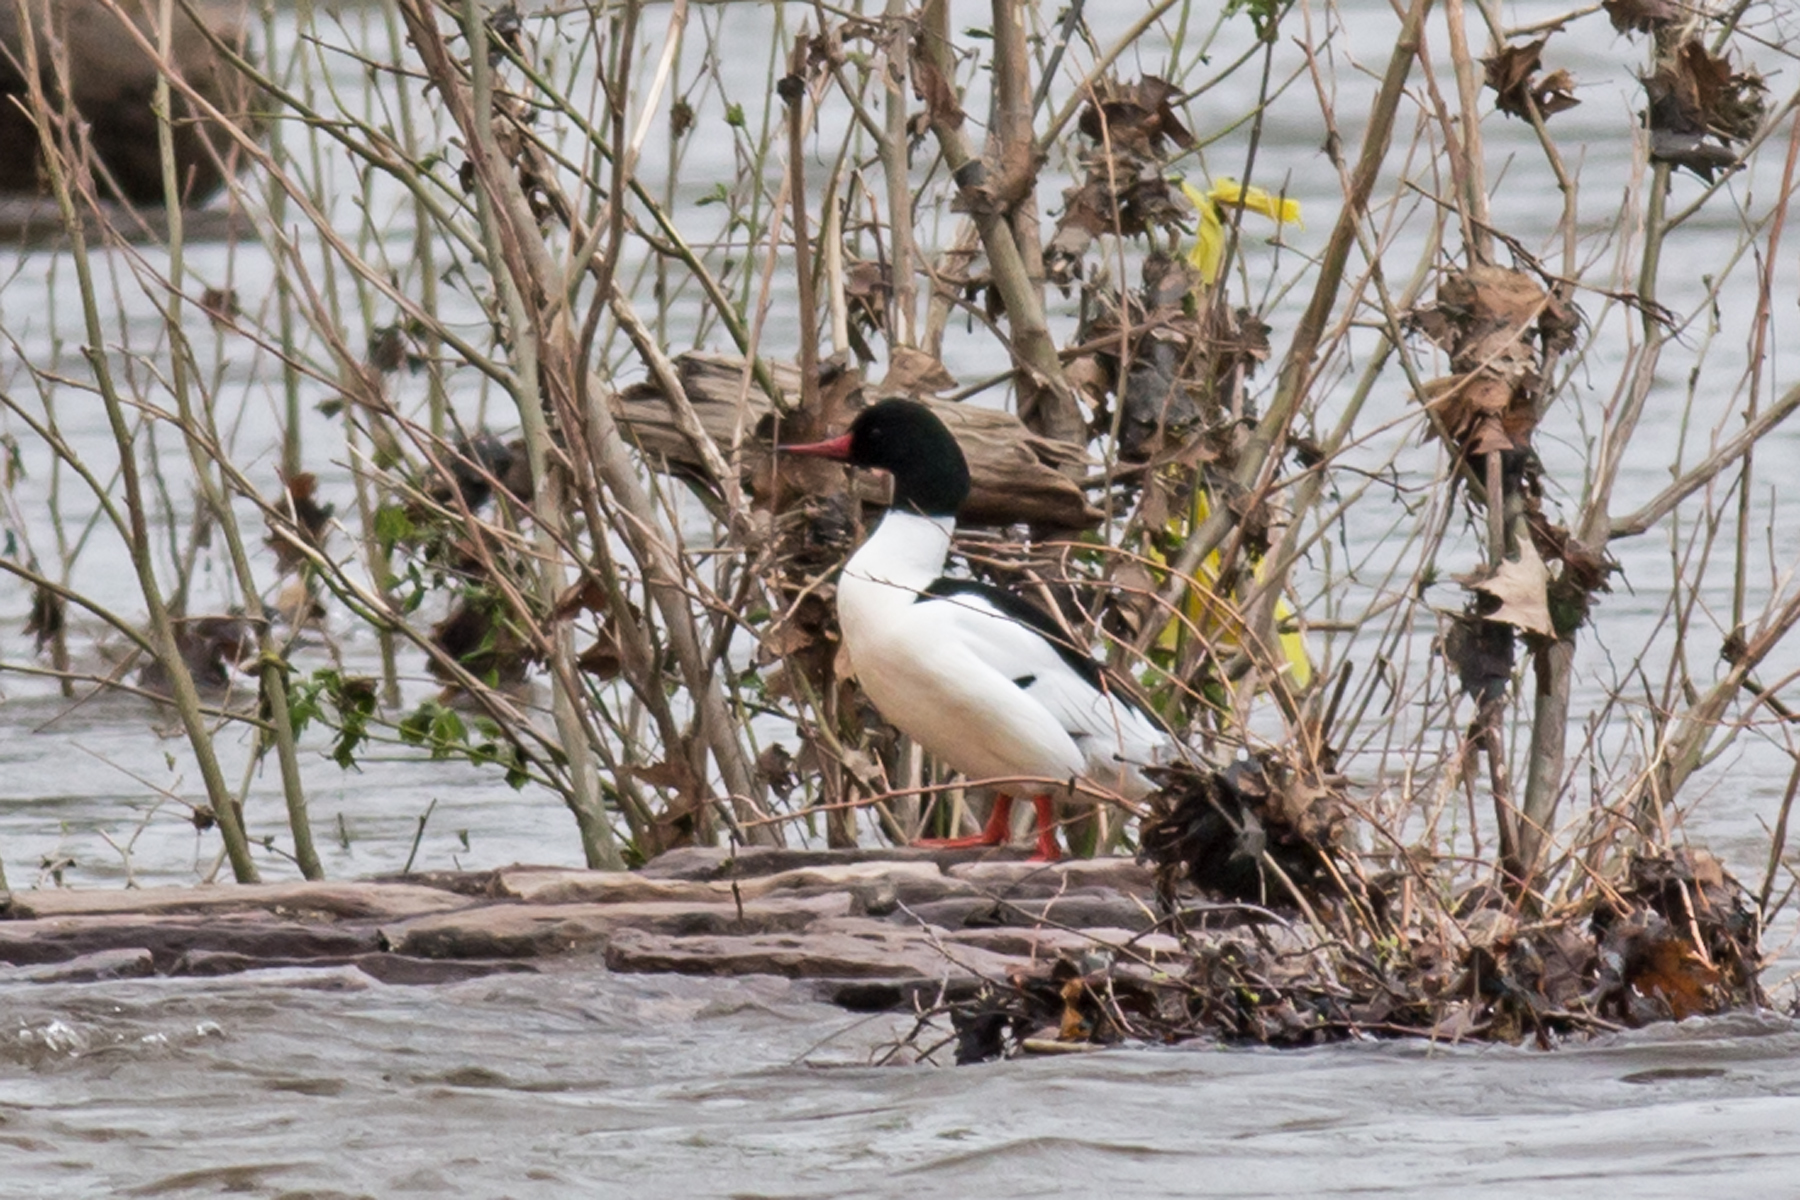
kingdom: Animalia
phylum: Chordata
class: Aves
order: Anseriformes
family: Anatidae
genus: Mergus
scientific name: Mergus merganser
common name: Common merganser
